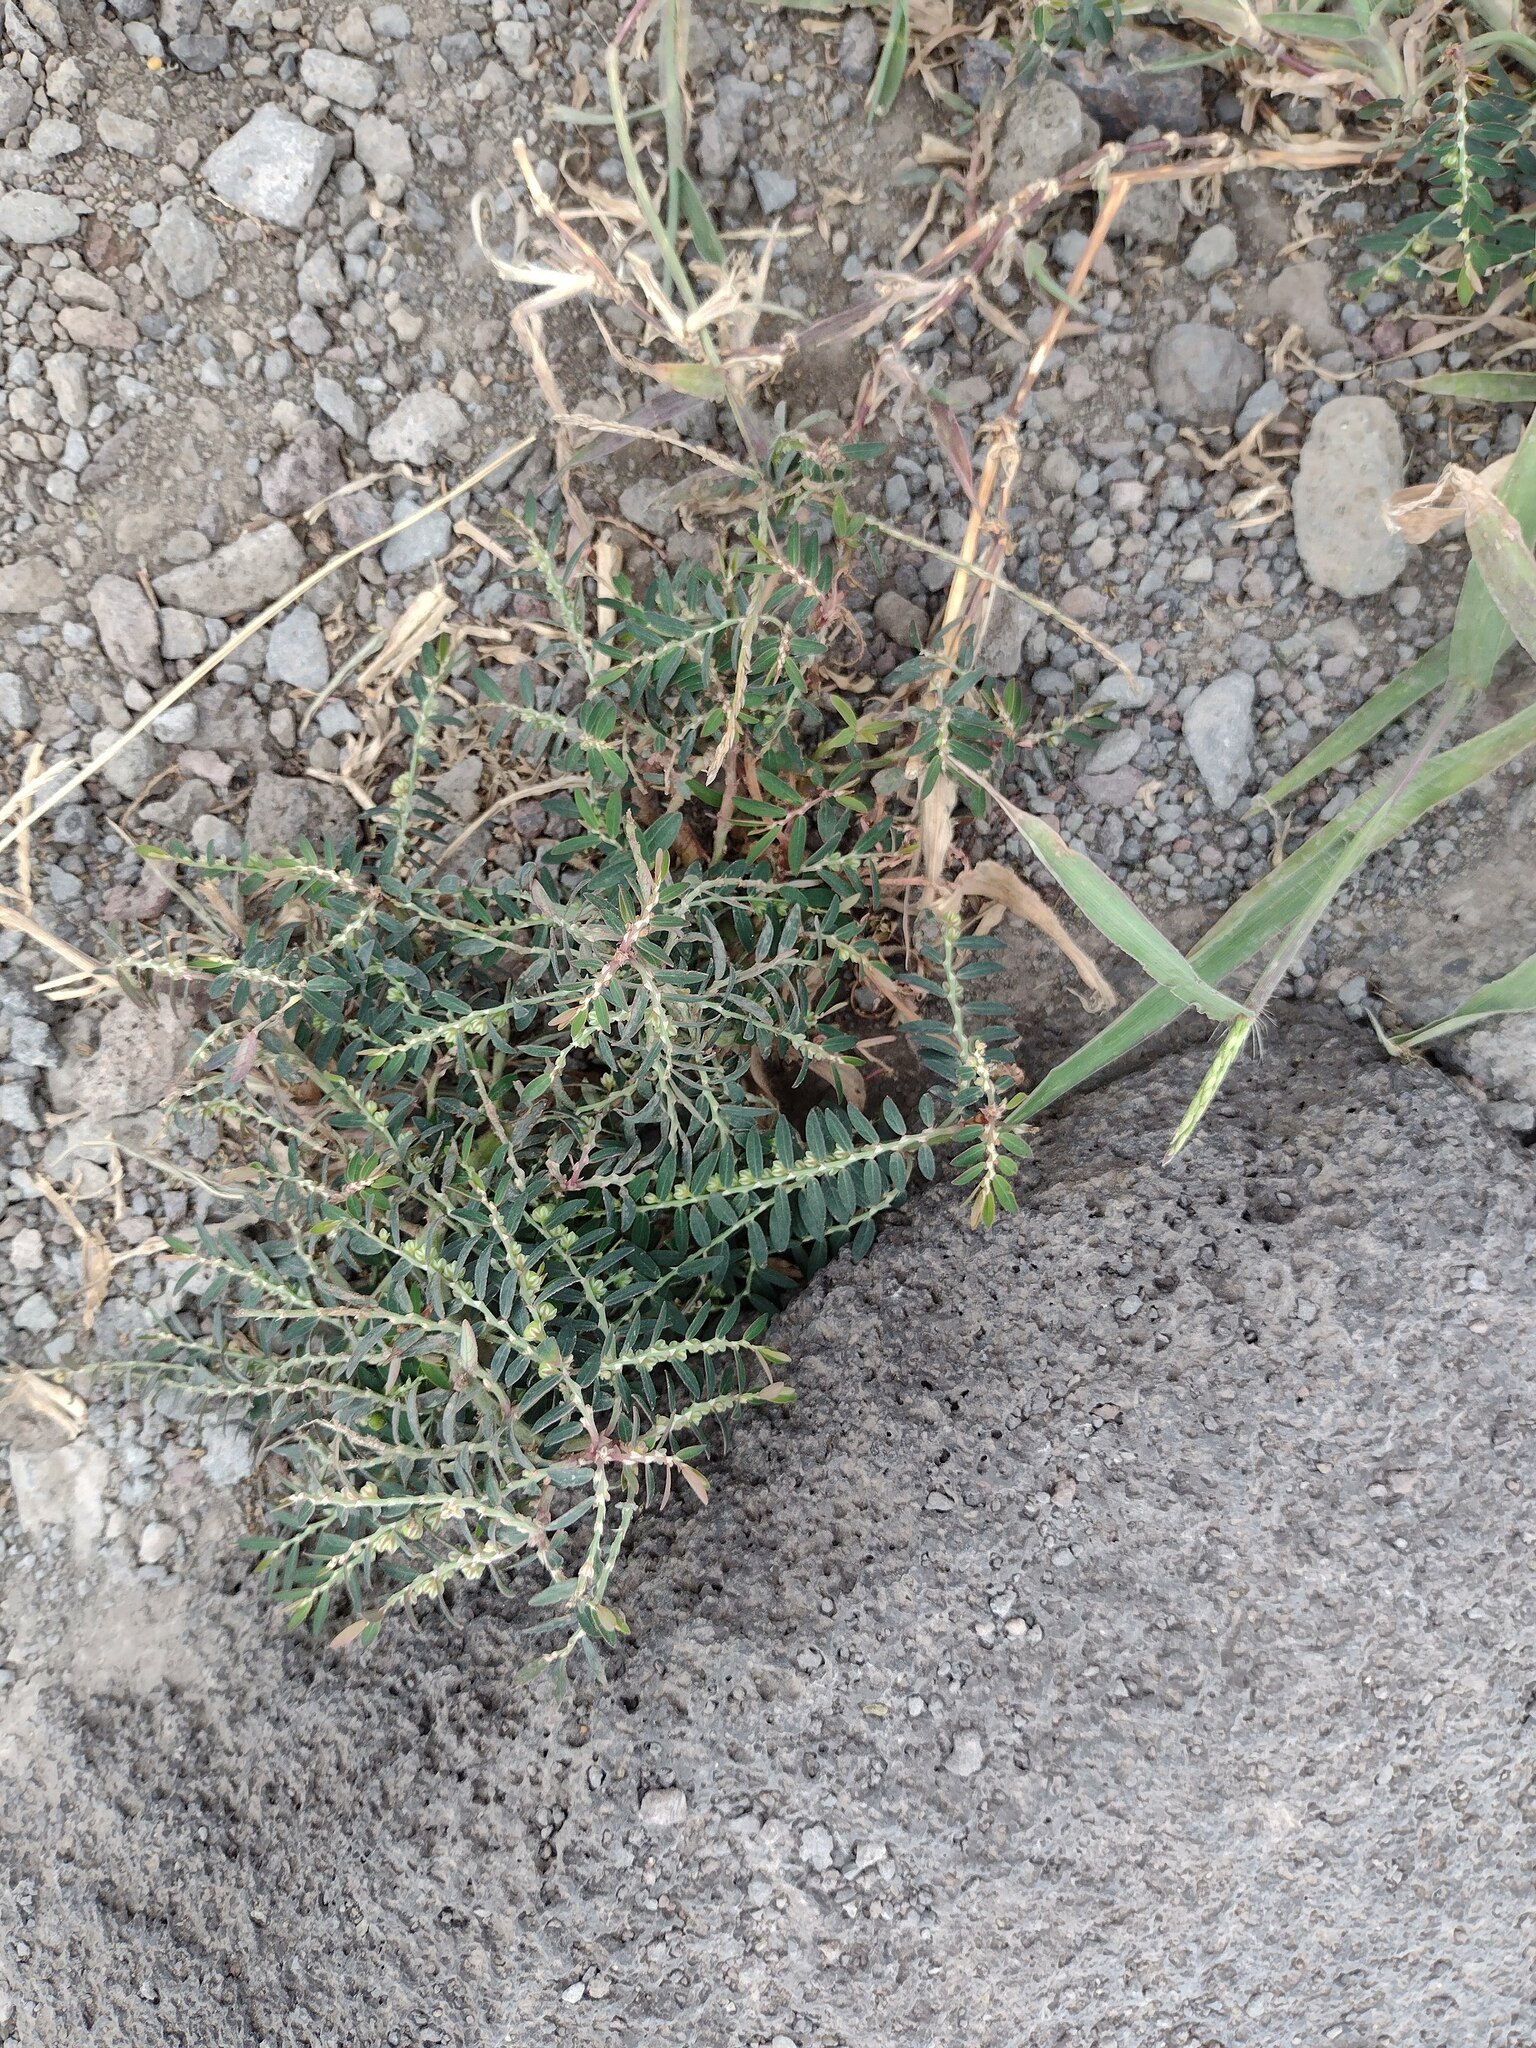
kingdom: Plantae
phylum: Tracheophyta
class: Magnoliopsida
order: Malpighiales
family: Phyllanthaceae
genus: Phyllanthus
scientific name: Phyllanthus debilis
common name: Niruri
